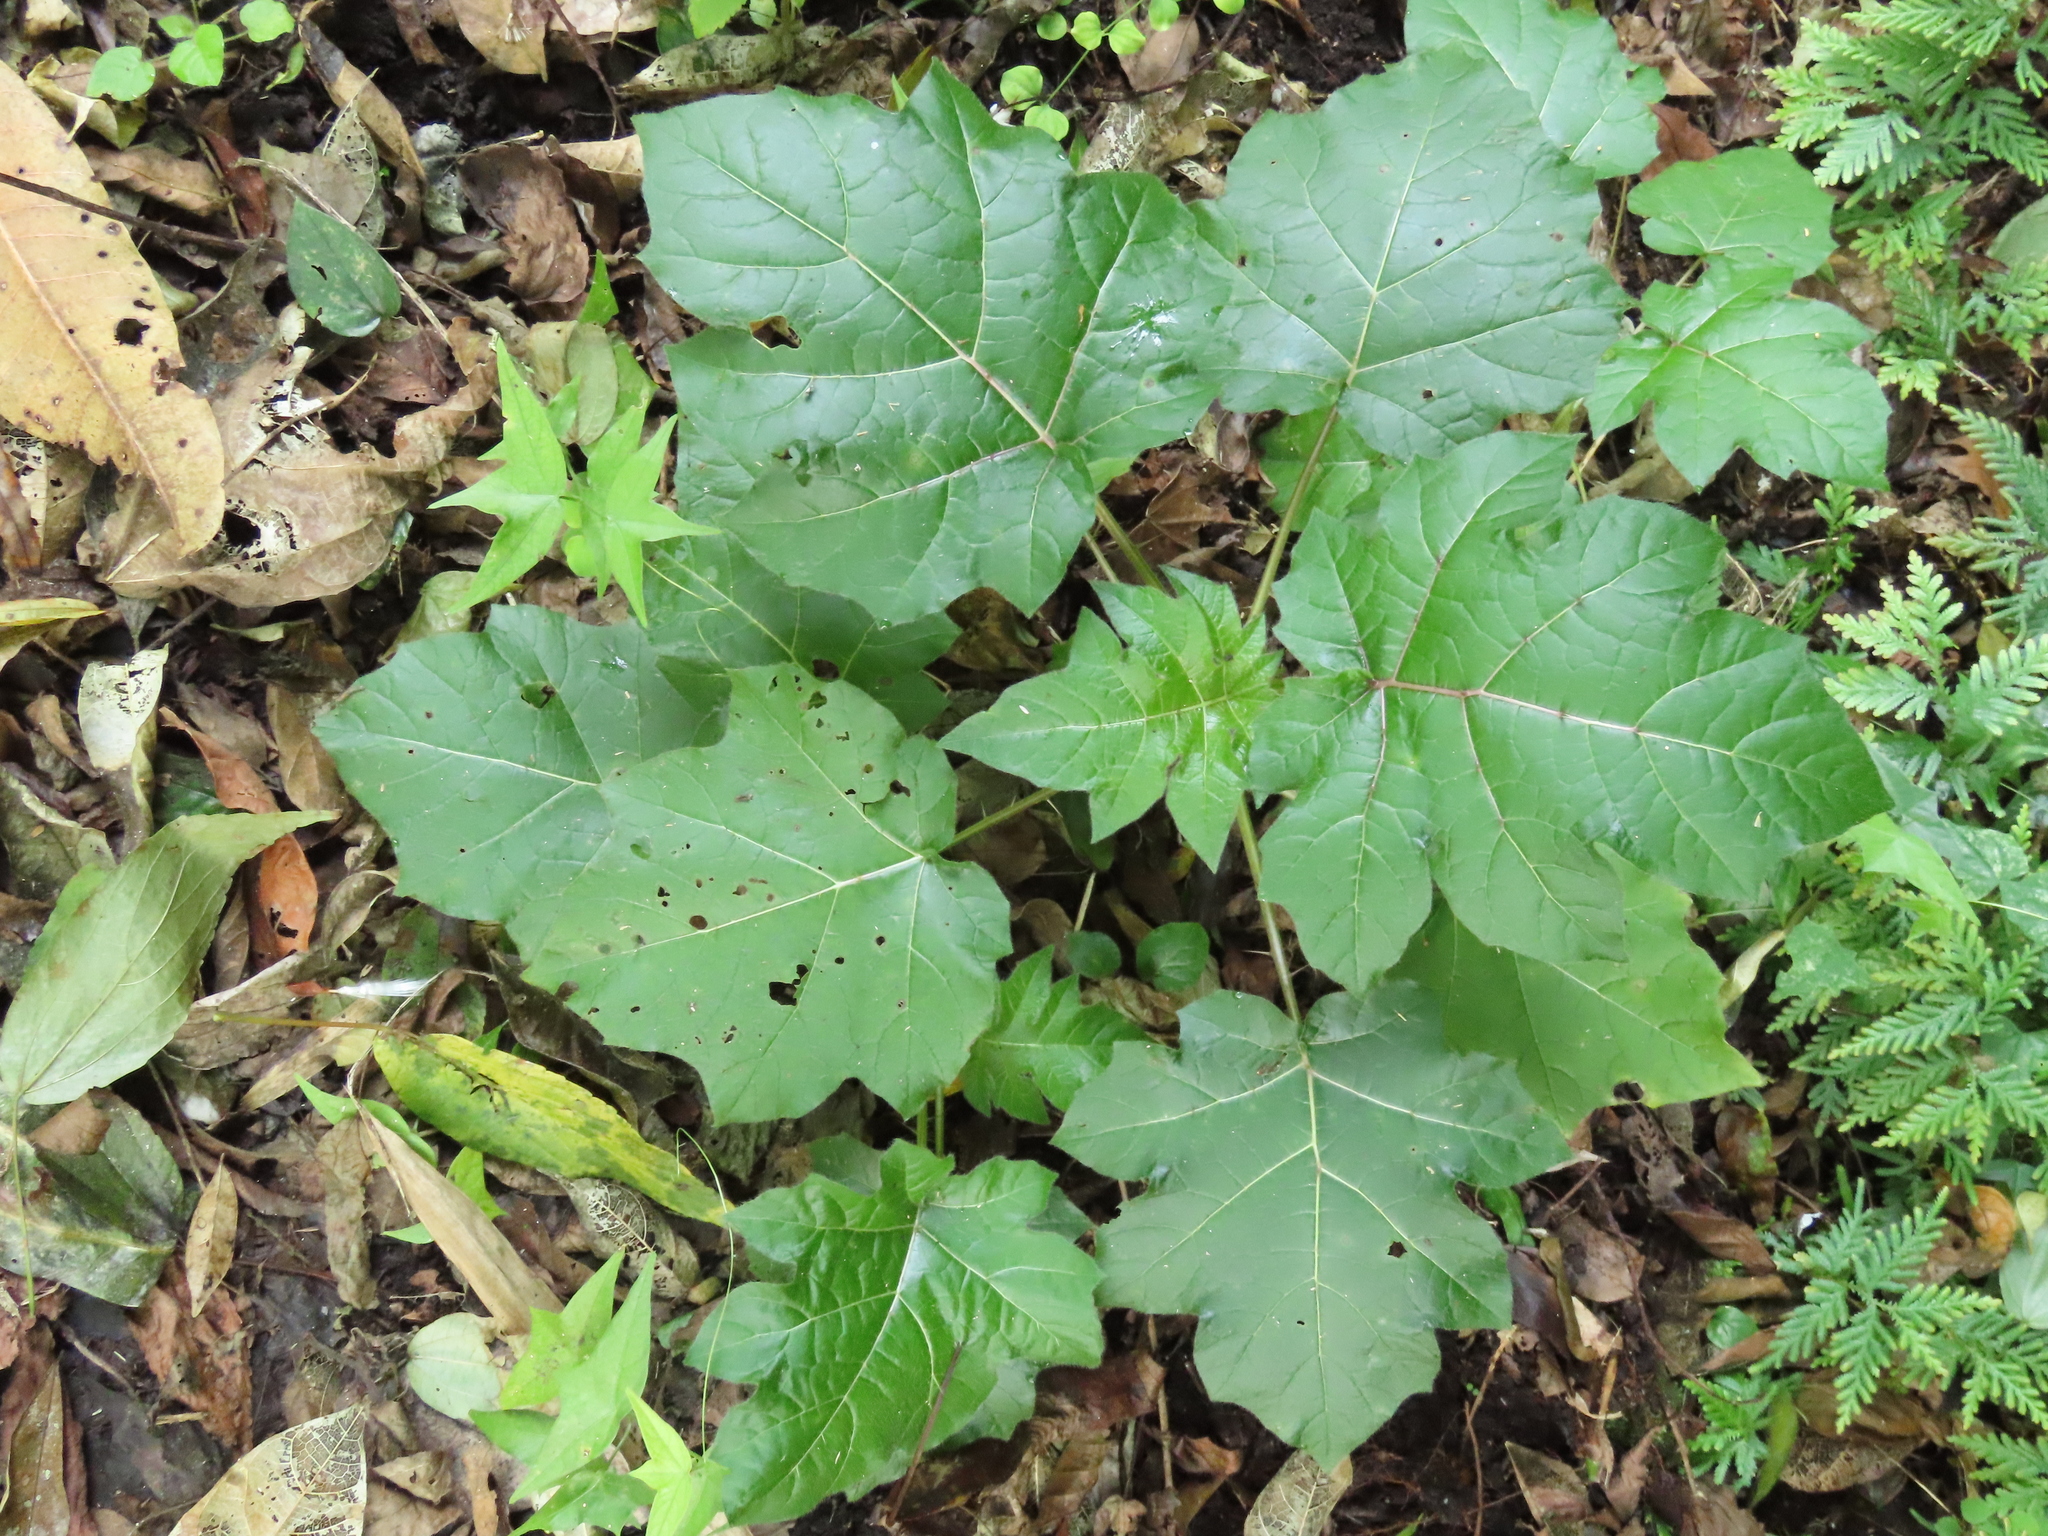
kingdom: Plantae
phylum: Tracheophyta
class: Magnoliopsida
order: Solanales
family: Solanaceae
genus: Solanum
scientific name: Solanum capsicoides
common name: Cockroach berry
